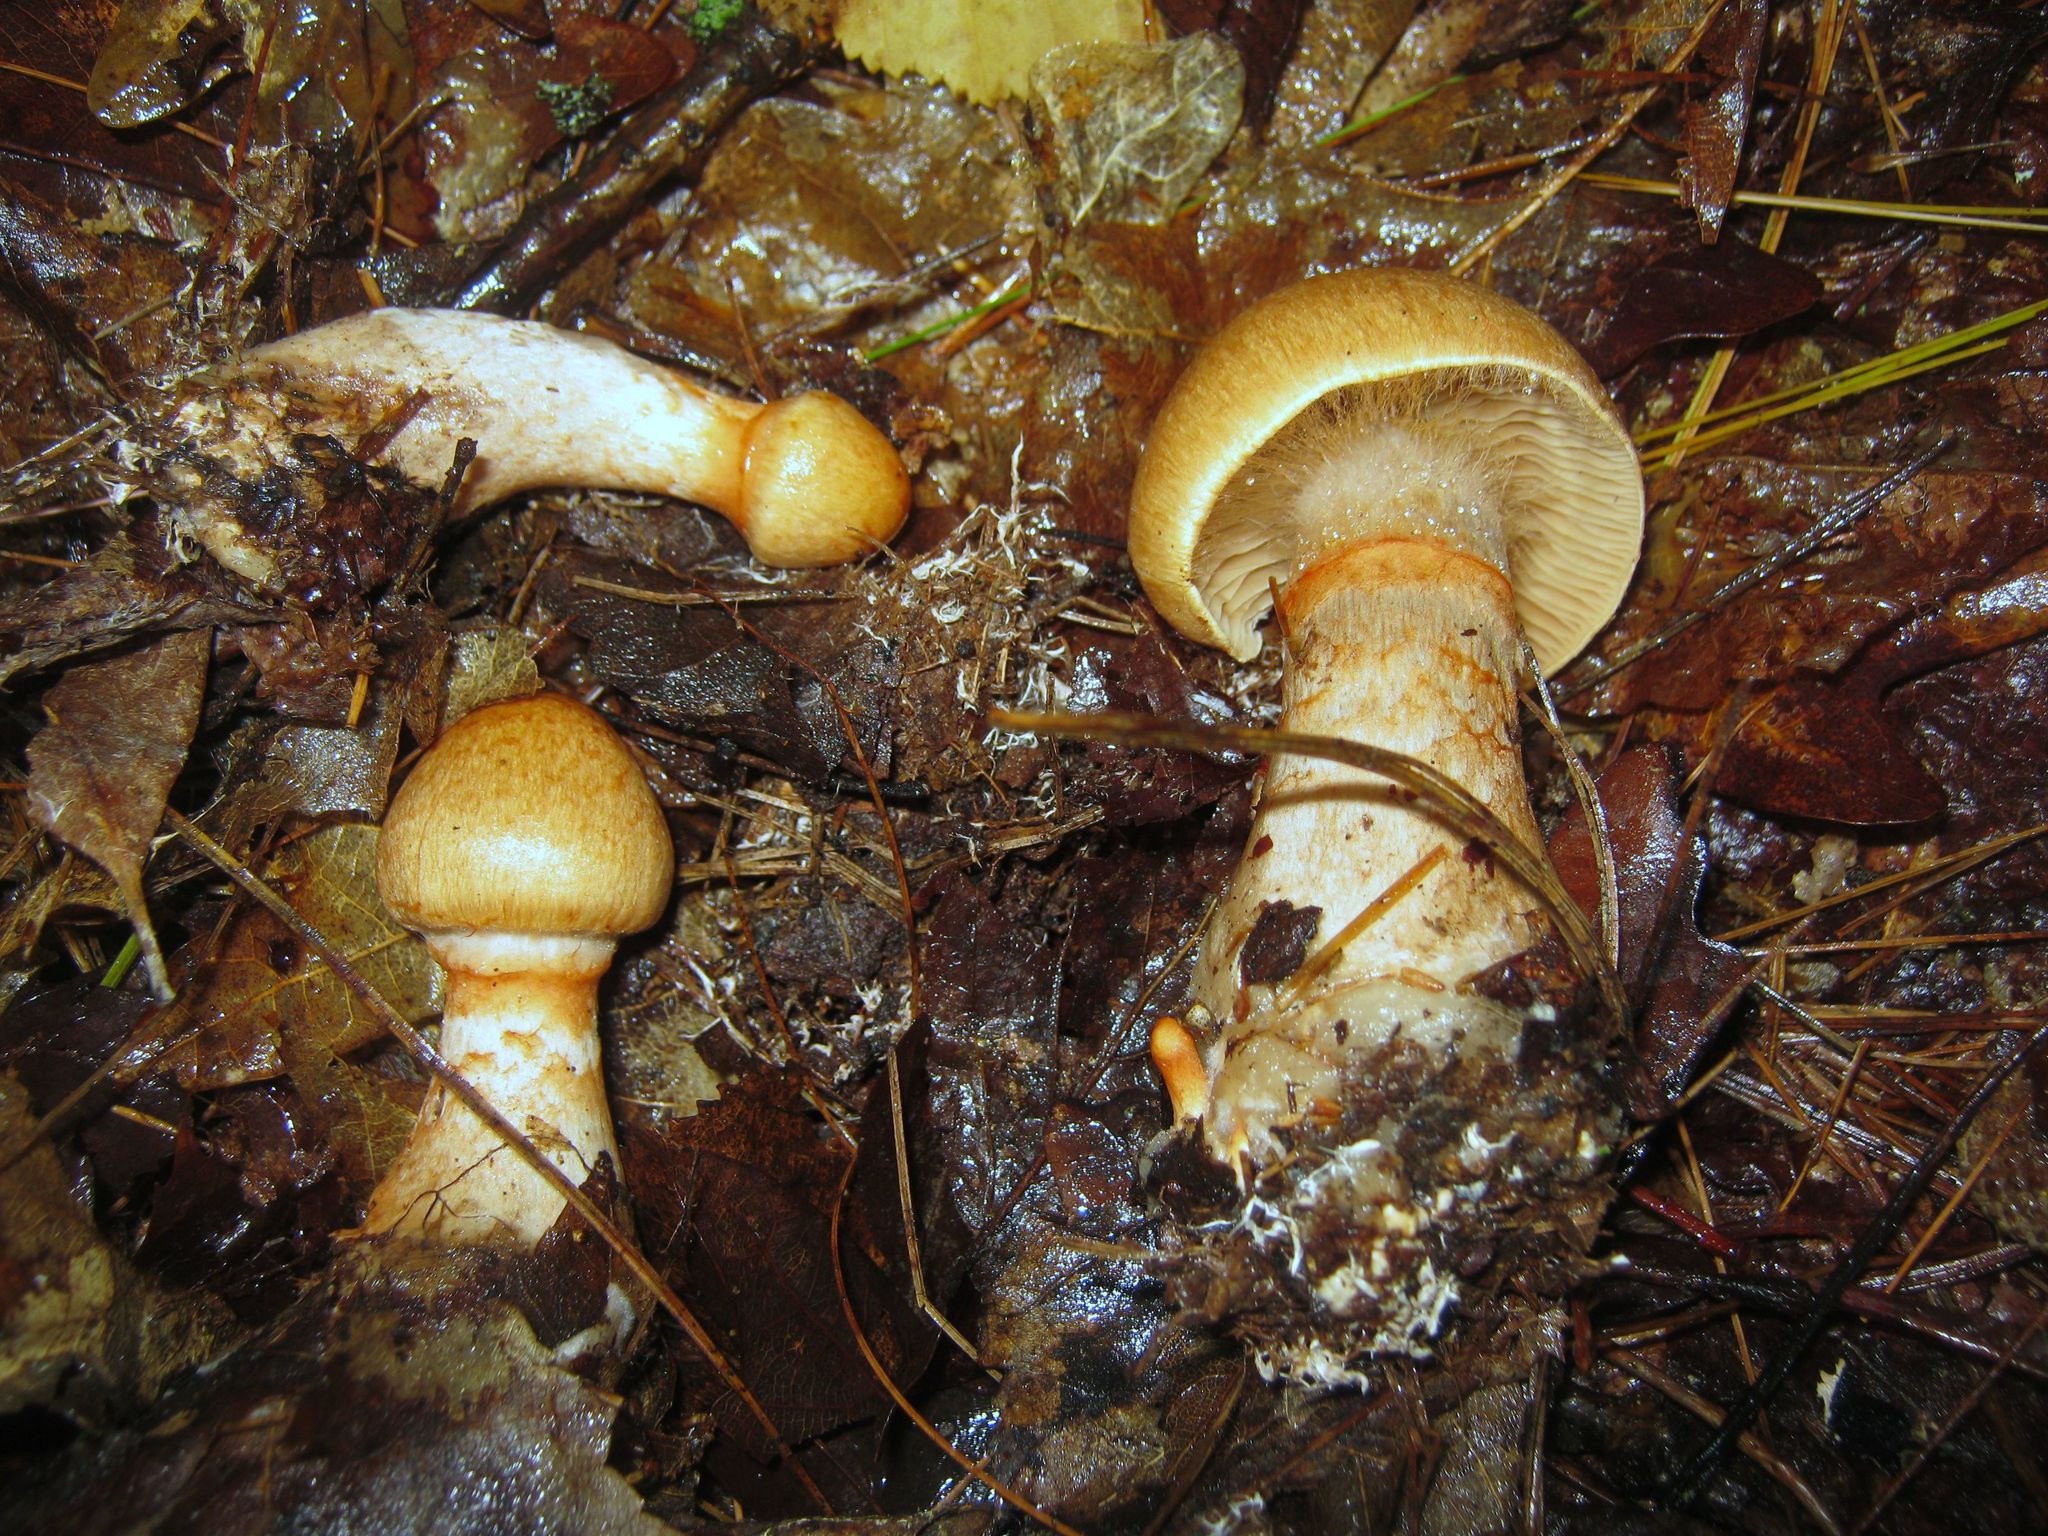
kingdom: Fungi
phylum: Basidiomycota
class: Agaricomycetes
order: Agaricales
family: Cortinariaceae
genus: Cortinarius
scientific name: Cortinarius armillatus
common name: Red banded webcap
